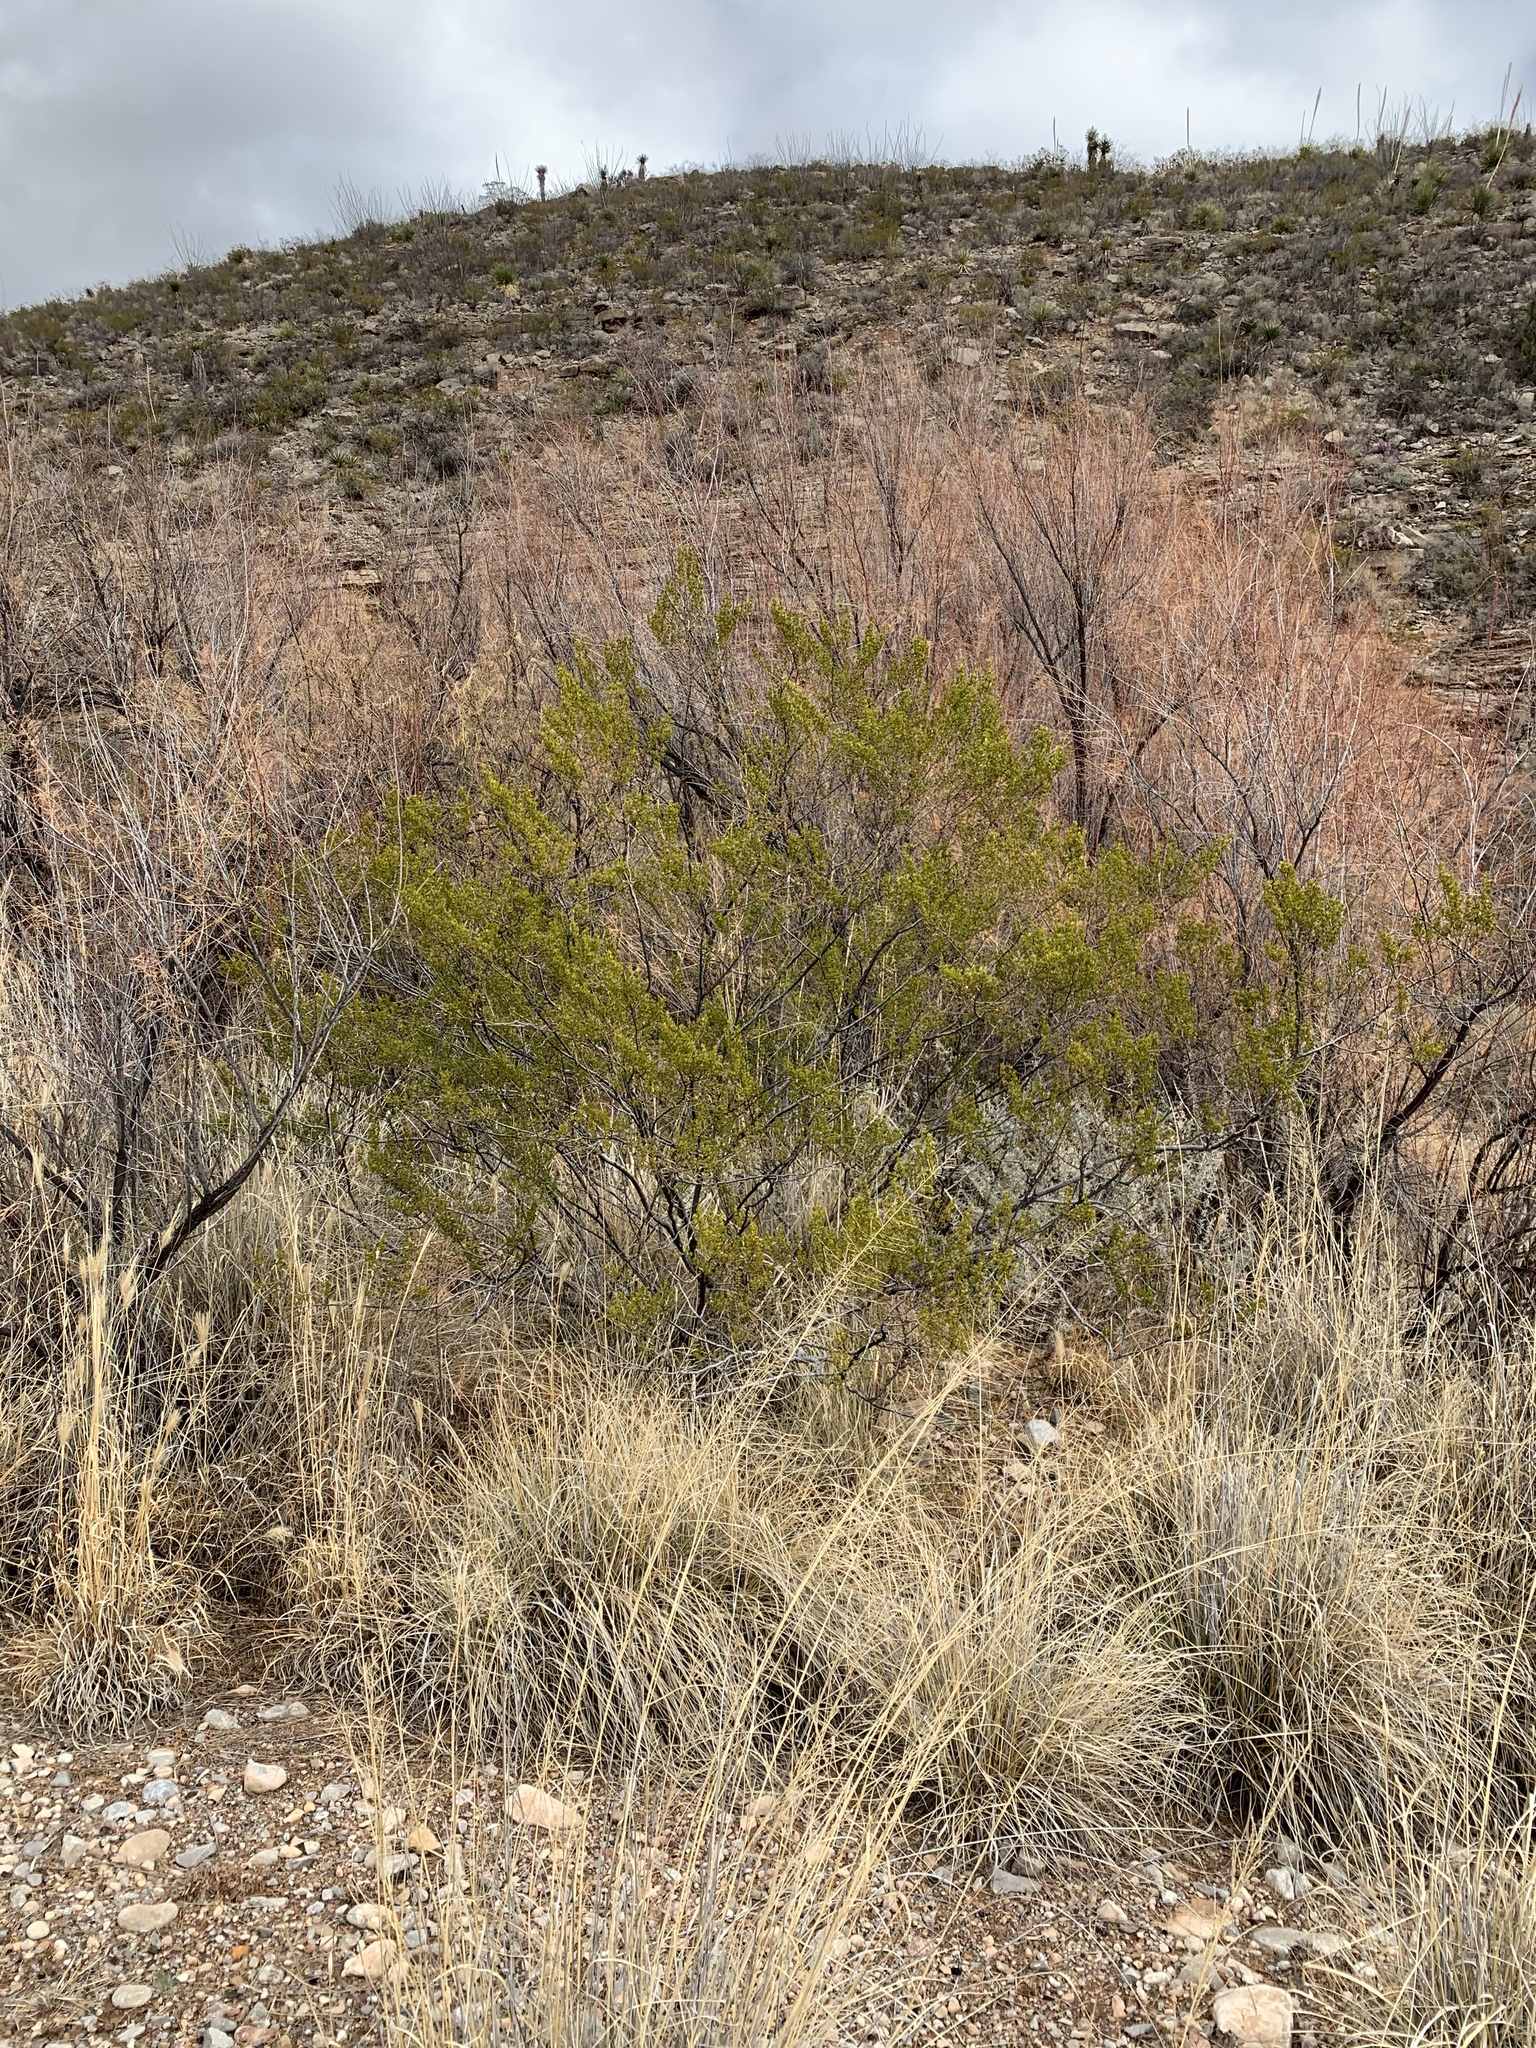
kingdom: Plantae
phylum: Tracheophyta
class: Magnoliopsida
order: Zygophyllales
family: Zygophyllaceae
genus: Larrea
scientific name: Larrea tridentata
